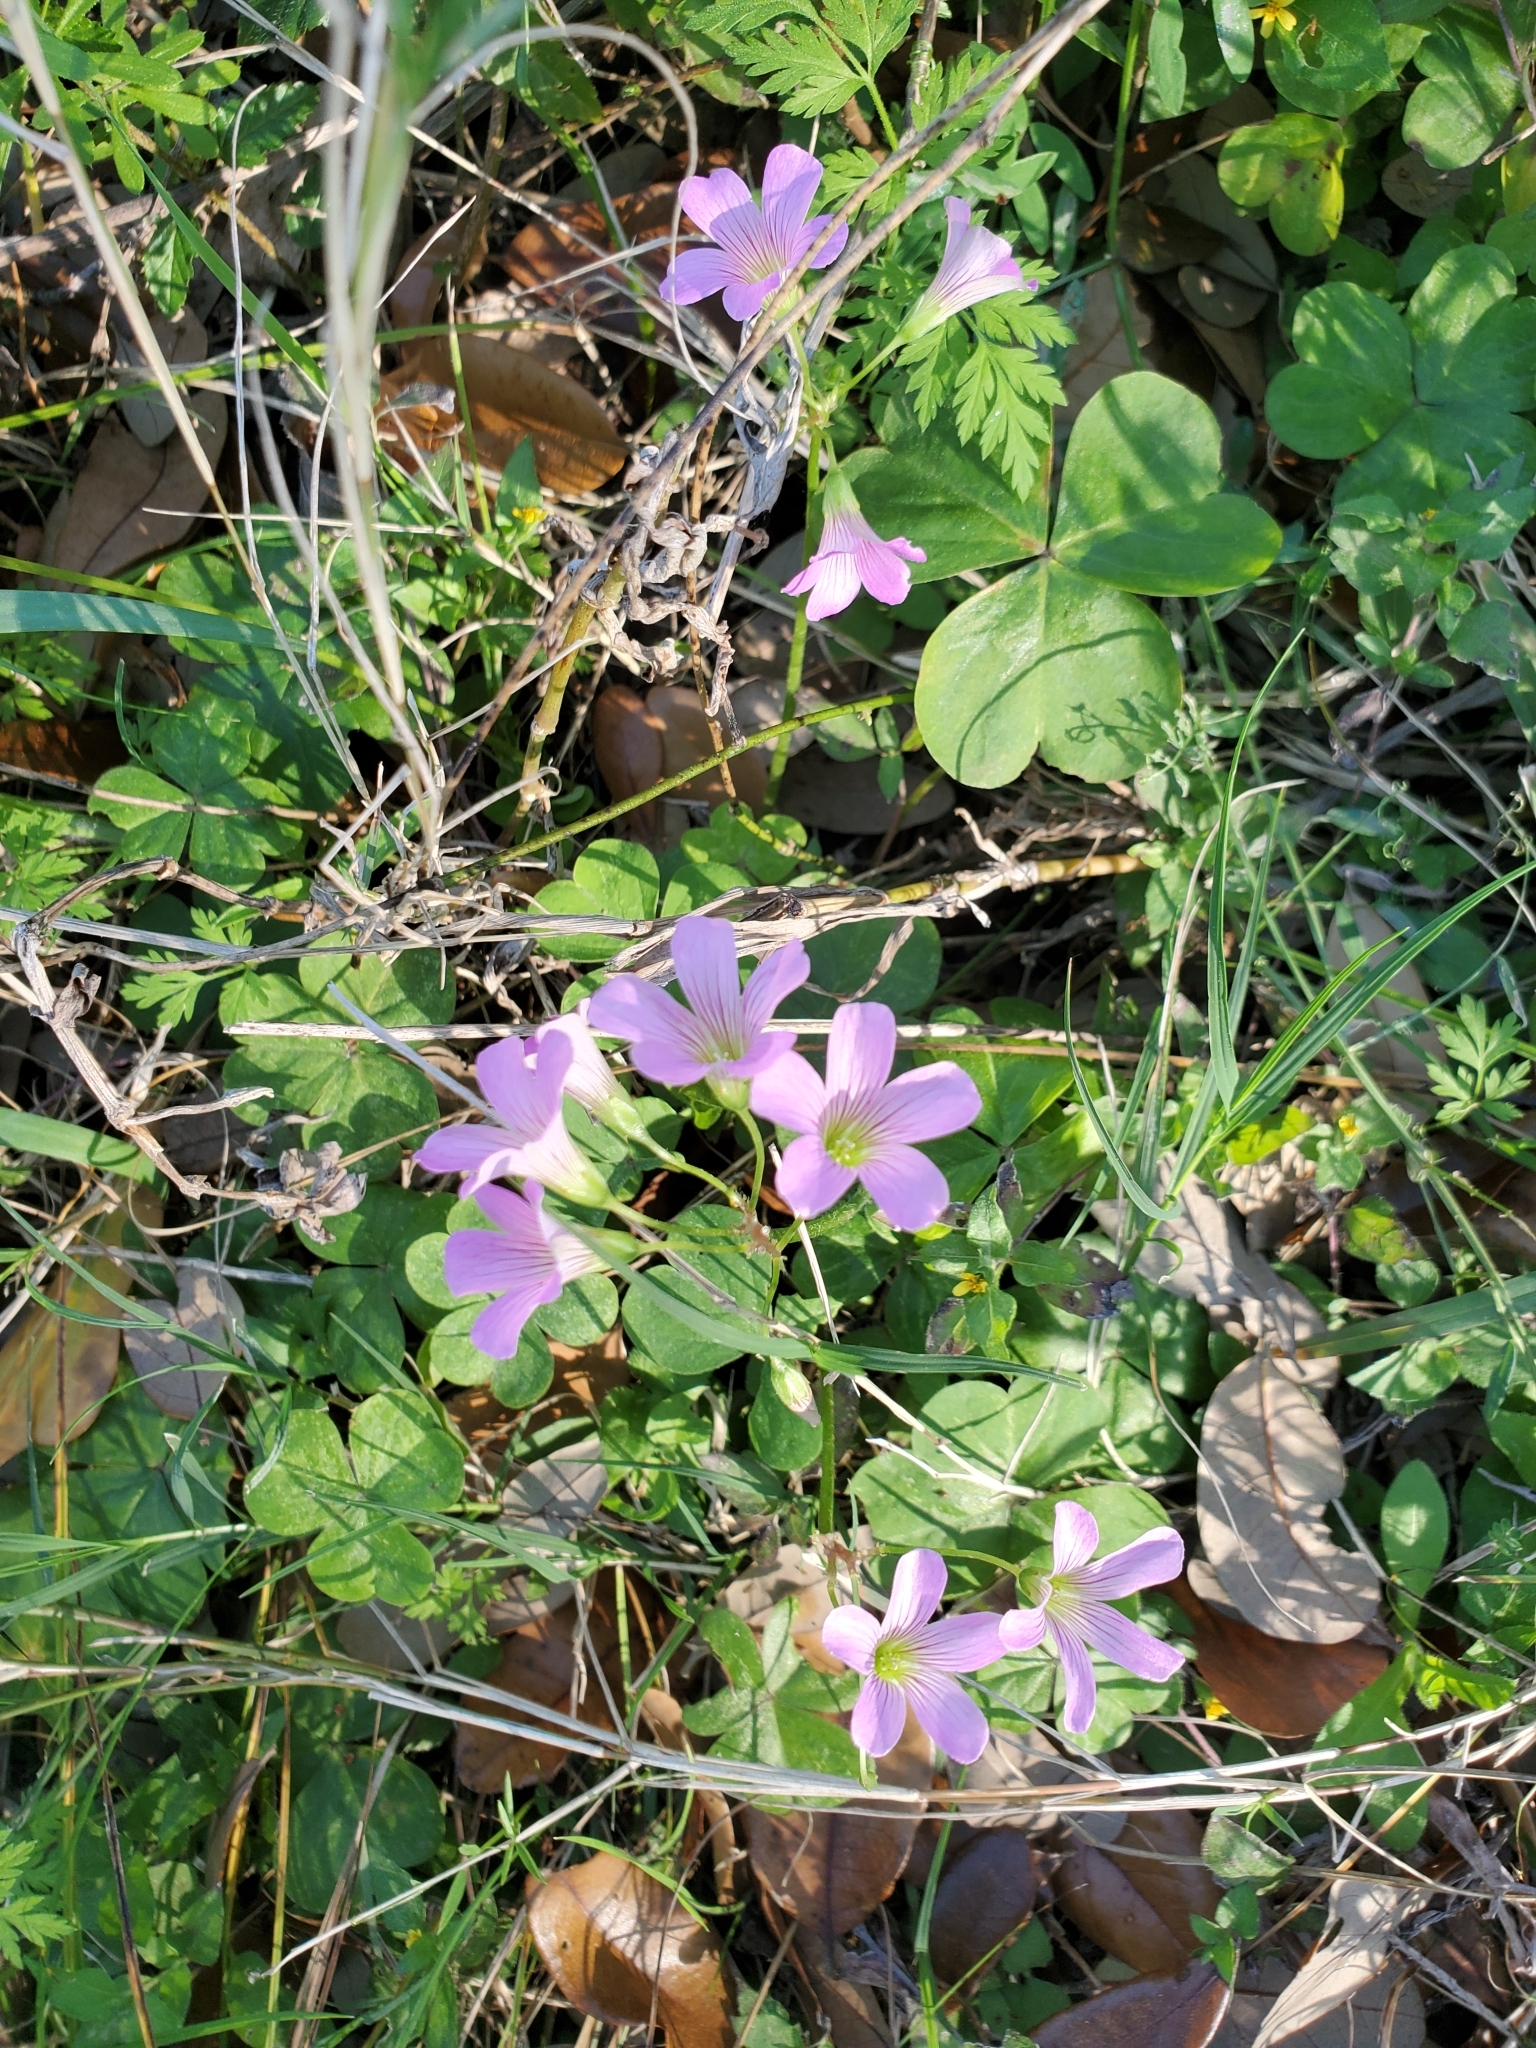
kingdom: Plantae
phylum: Tracheophyta
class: Magnoliopsida
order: Oxalidales
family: Oxalidaceae
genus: Oxalis
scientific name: Oxalis debilis
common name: Large-flowered pink-sorrel
